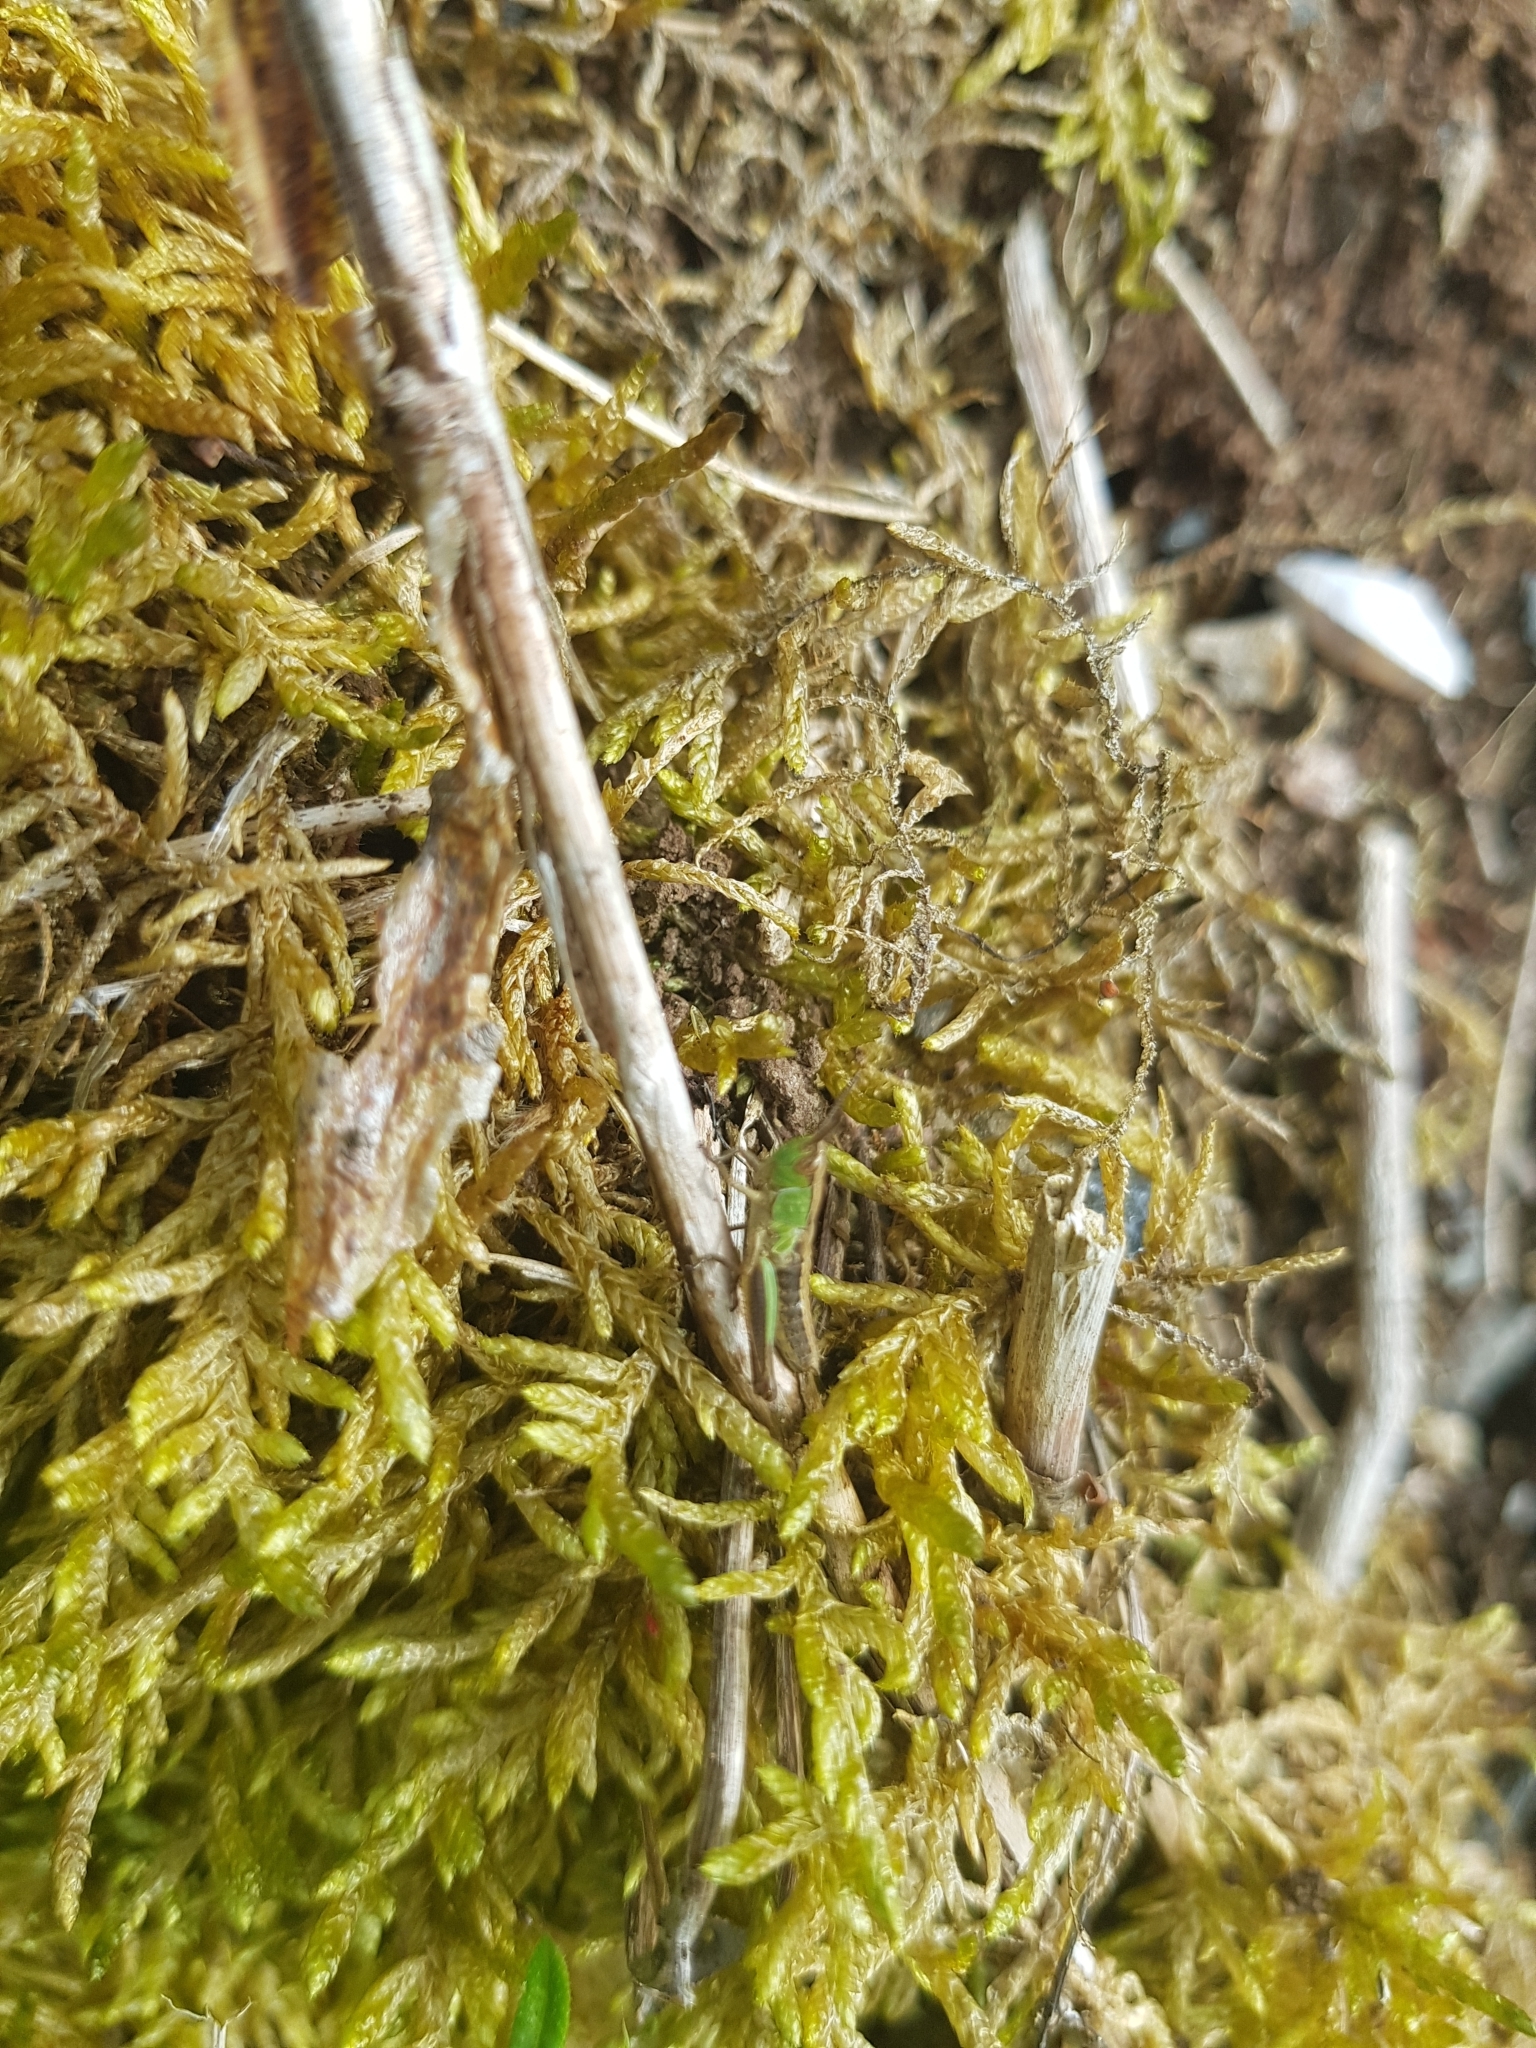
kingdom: Animalia
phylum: Arthropoda
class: Insecta
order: Orthoptera
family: Acrididae
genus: Pseudochorthippus
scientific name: Pseudochorthippus parallelus
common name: Meadow grasshopper
